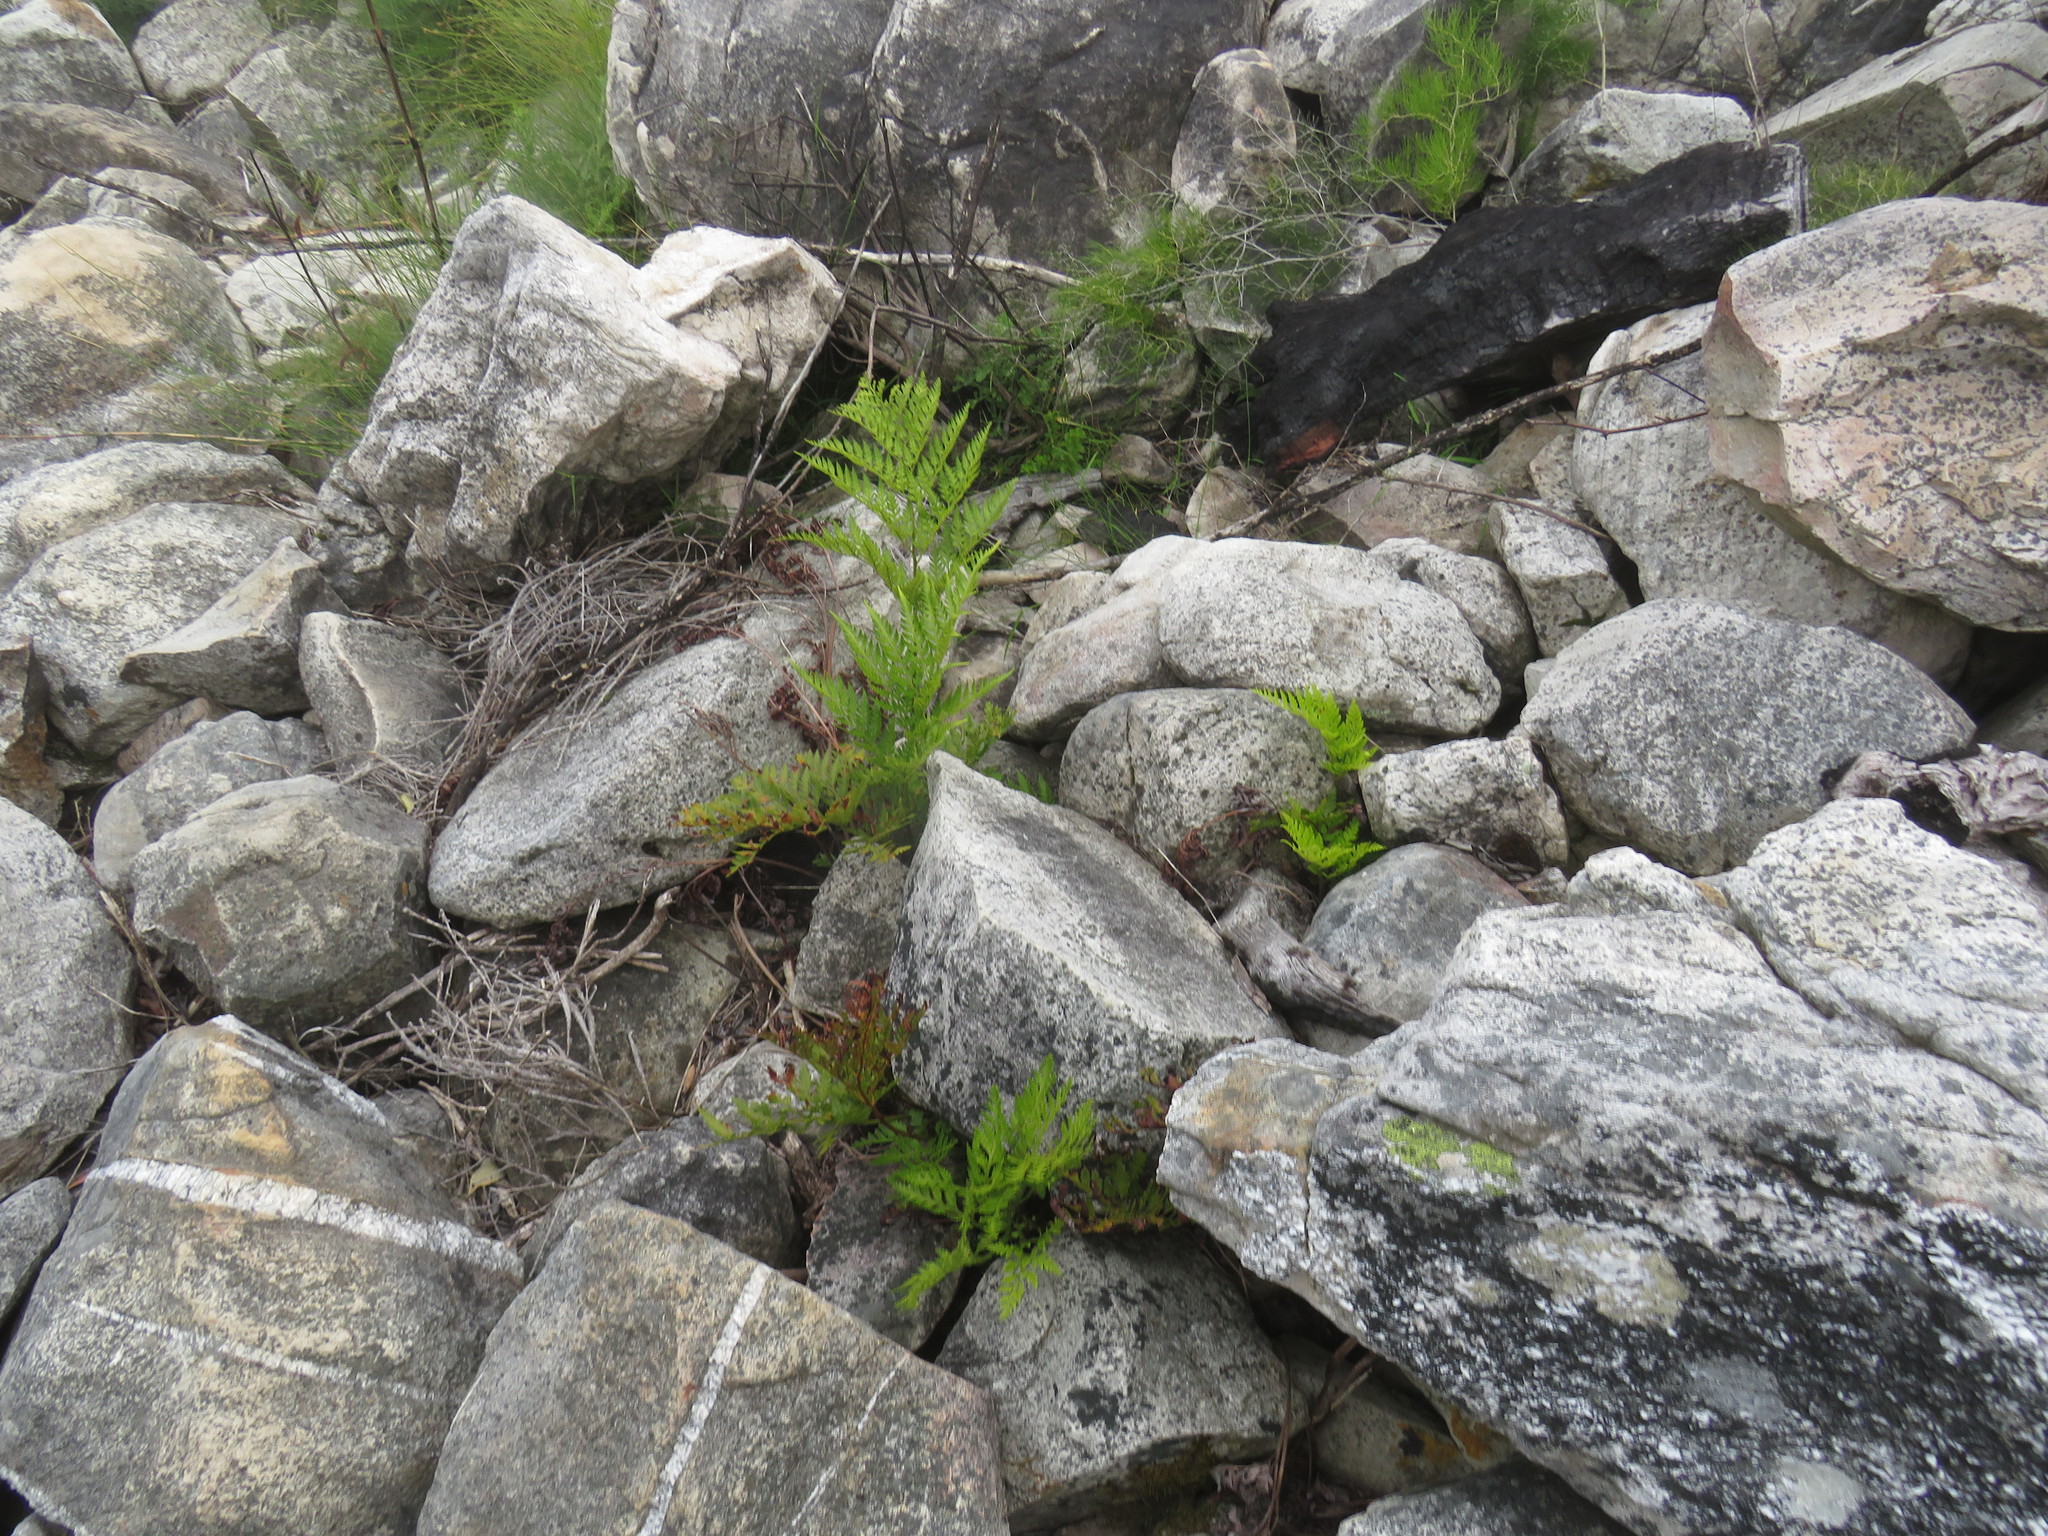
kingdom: Plantae
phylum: Tracheophyta
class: Polypodiopsida
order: Polypodiales
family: Dryopteridaceae
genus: Rumohra
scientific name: Rumohra adiantiformis
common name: Leather fern
